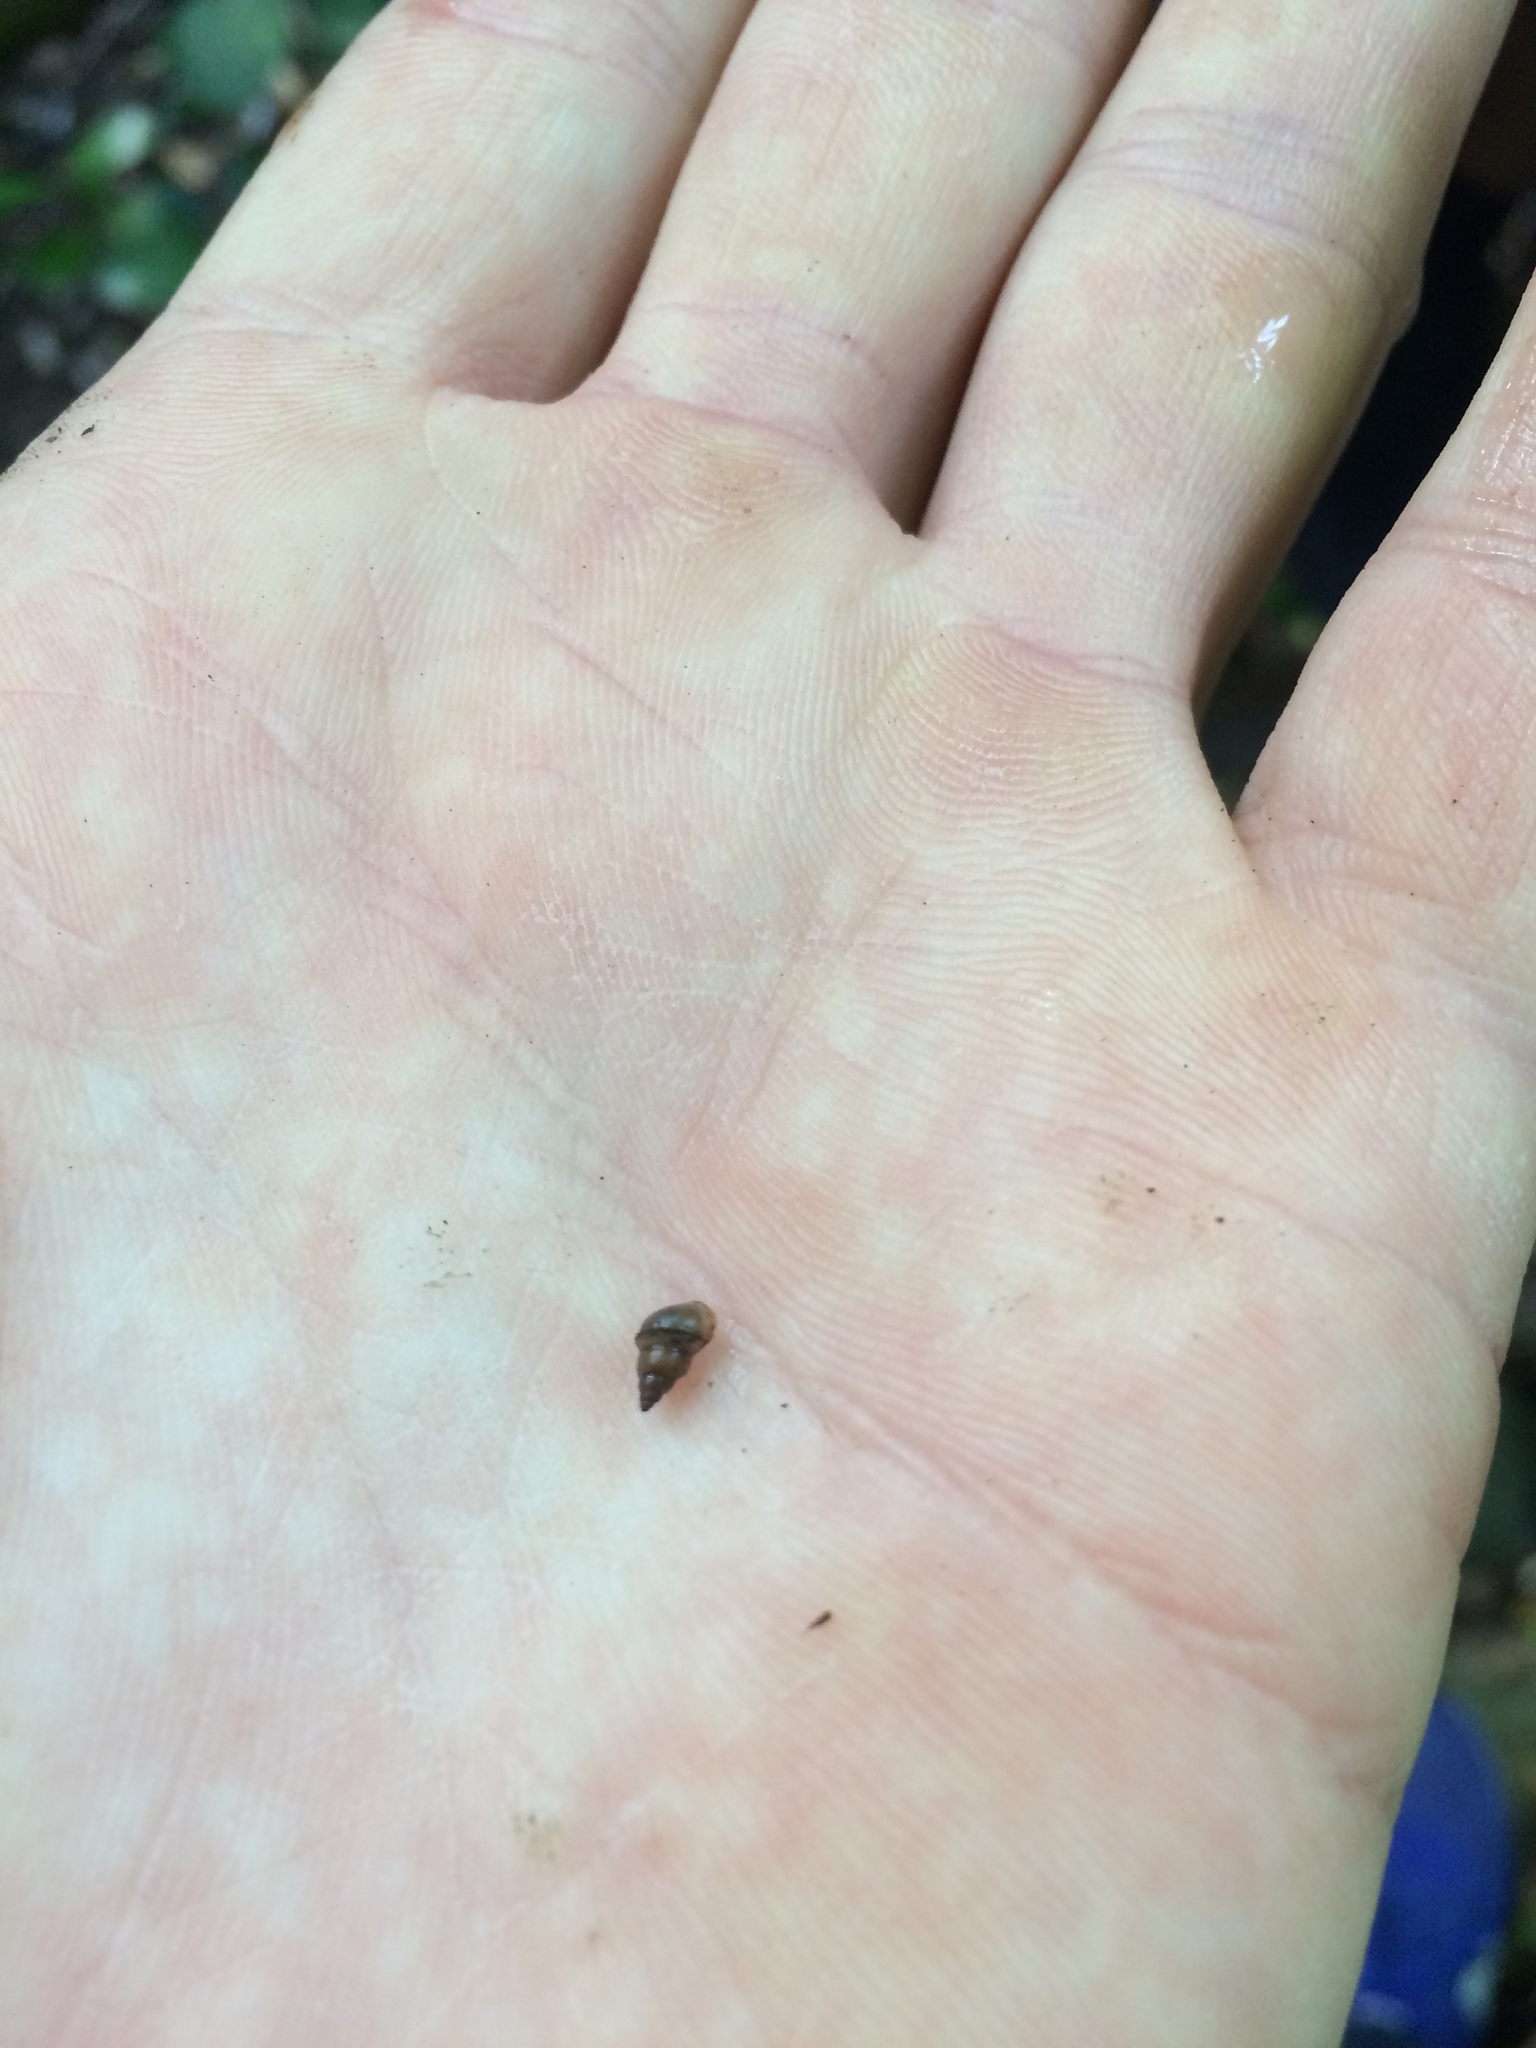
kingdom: Animalia
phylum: Mollusca
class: Gastropoda
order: Littorinimorpha
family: Tateidae
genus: Potamopyrgus
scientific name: Potamopyrgus antipodarum
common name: Jenkins' spire snail
